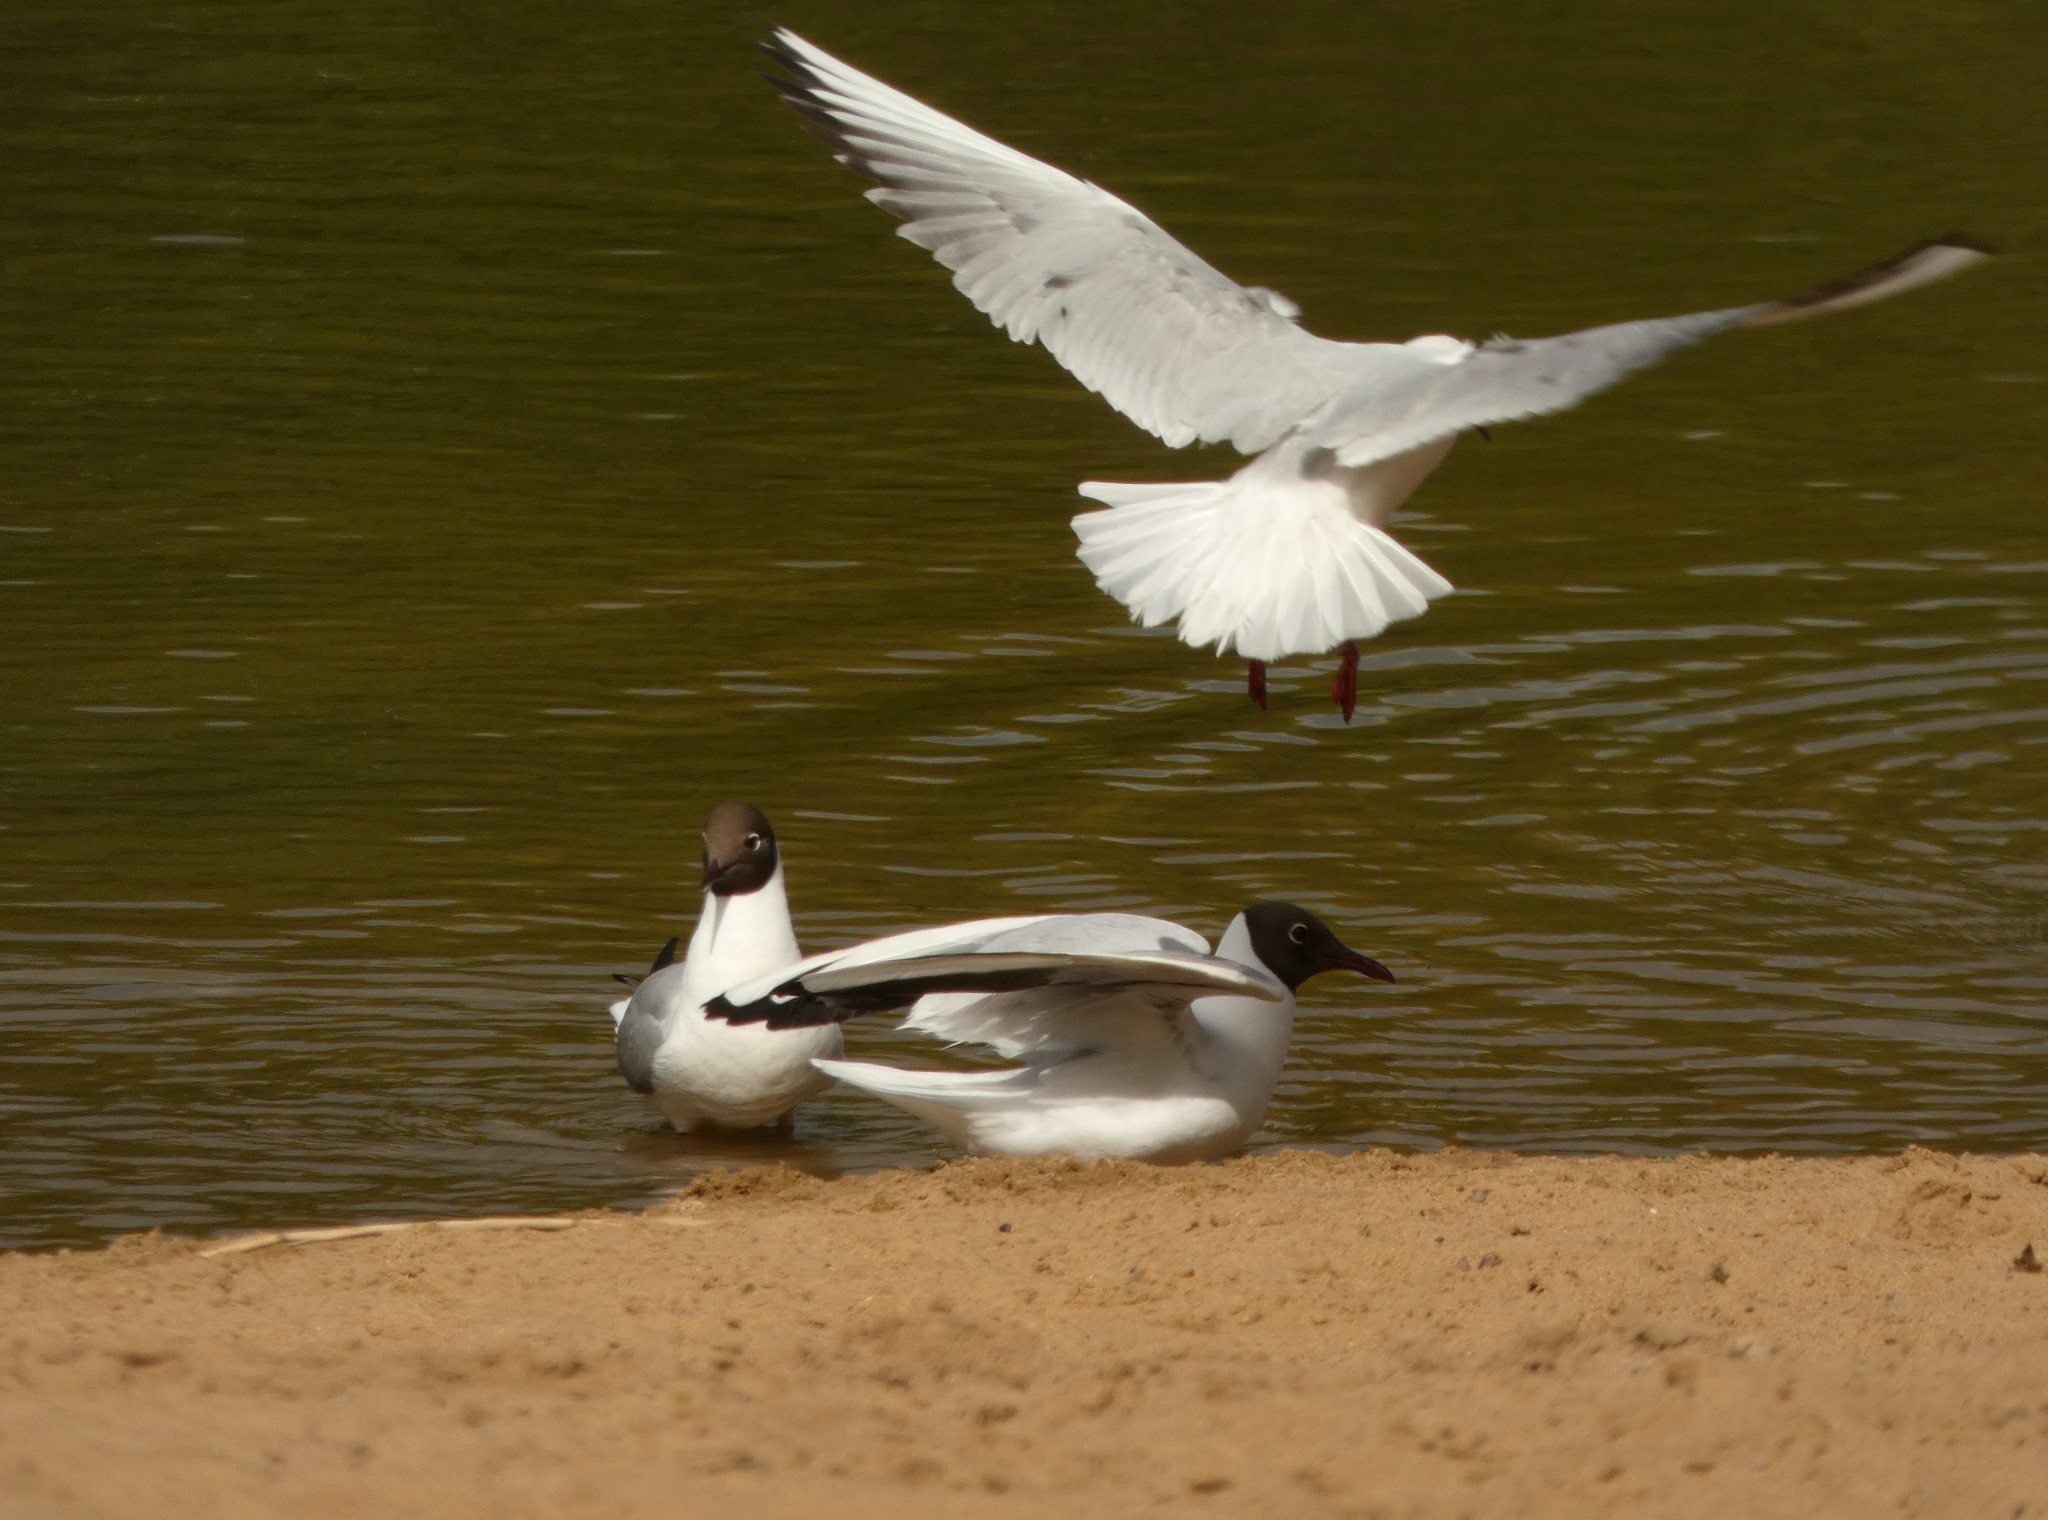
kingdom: Animalia
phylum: Chordata
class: Aves
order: Charadriiformes
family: Laridae
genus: Chroicocephalus
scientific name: Chroicocephalus ridibundus
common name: Black-headed gull
